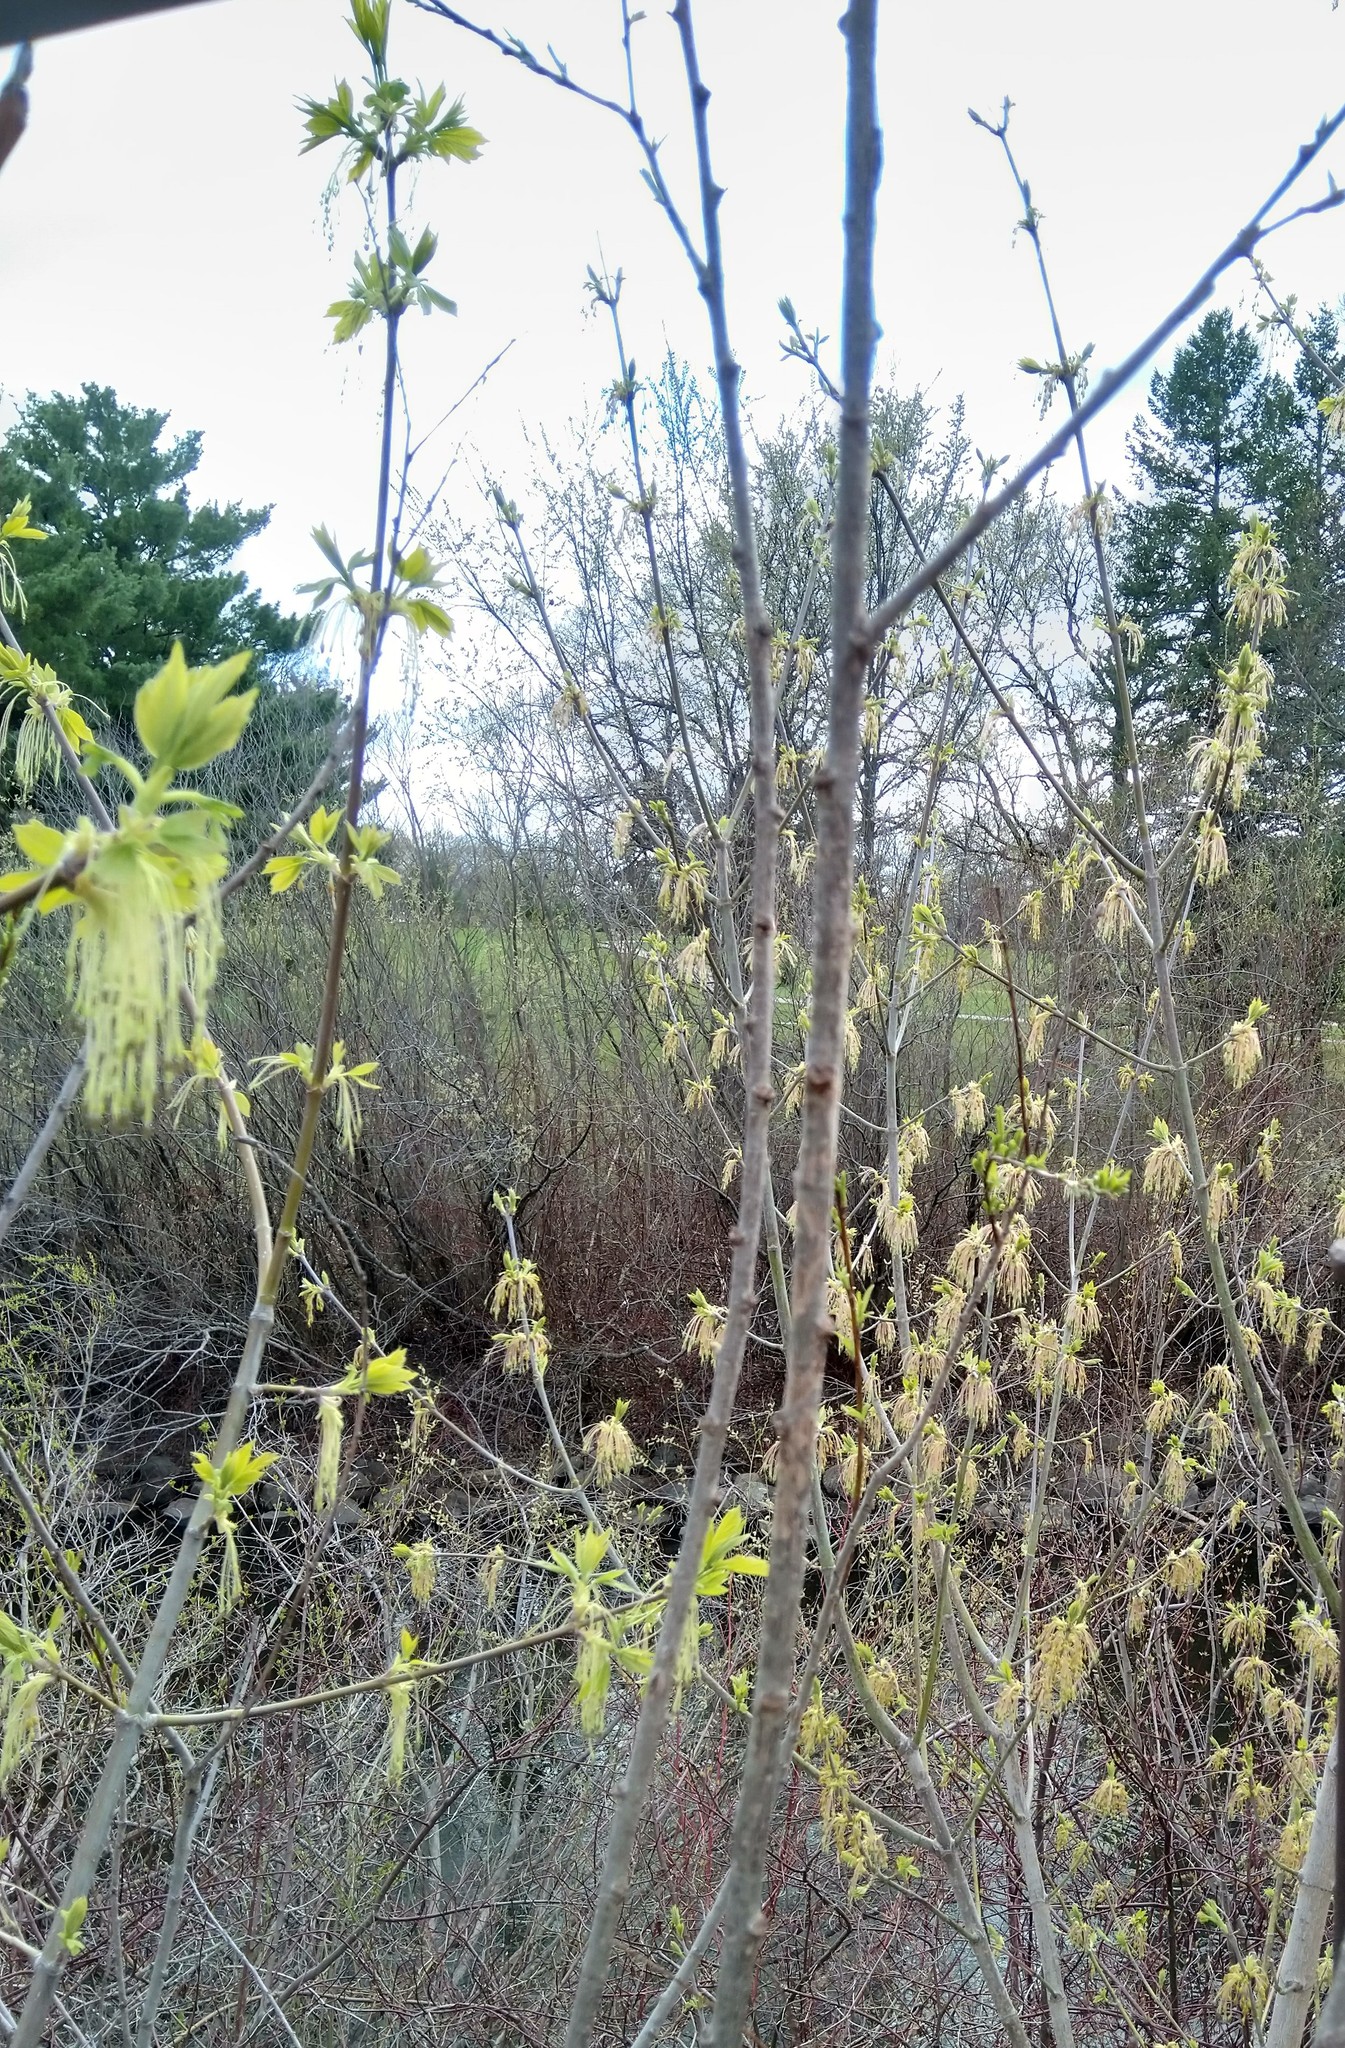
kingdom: Plantae
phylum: Tracheophyta
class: Magnoliopsida
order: Sapindales
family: Sapindaceae
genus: Acer
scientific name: Acer negundo
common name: Ashleaf maple
